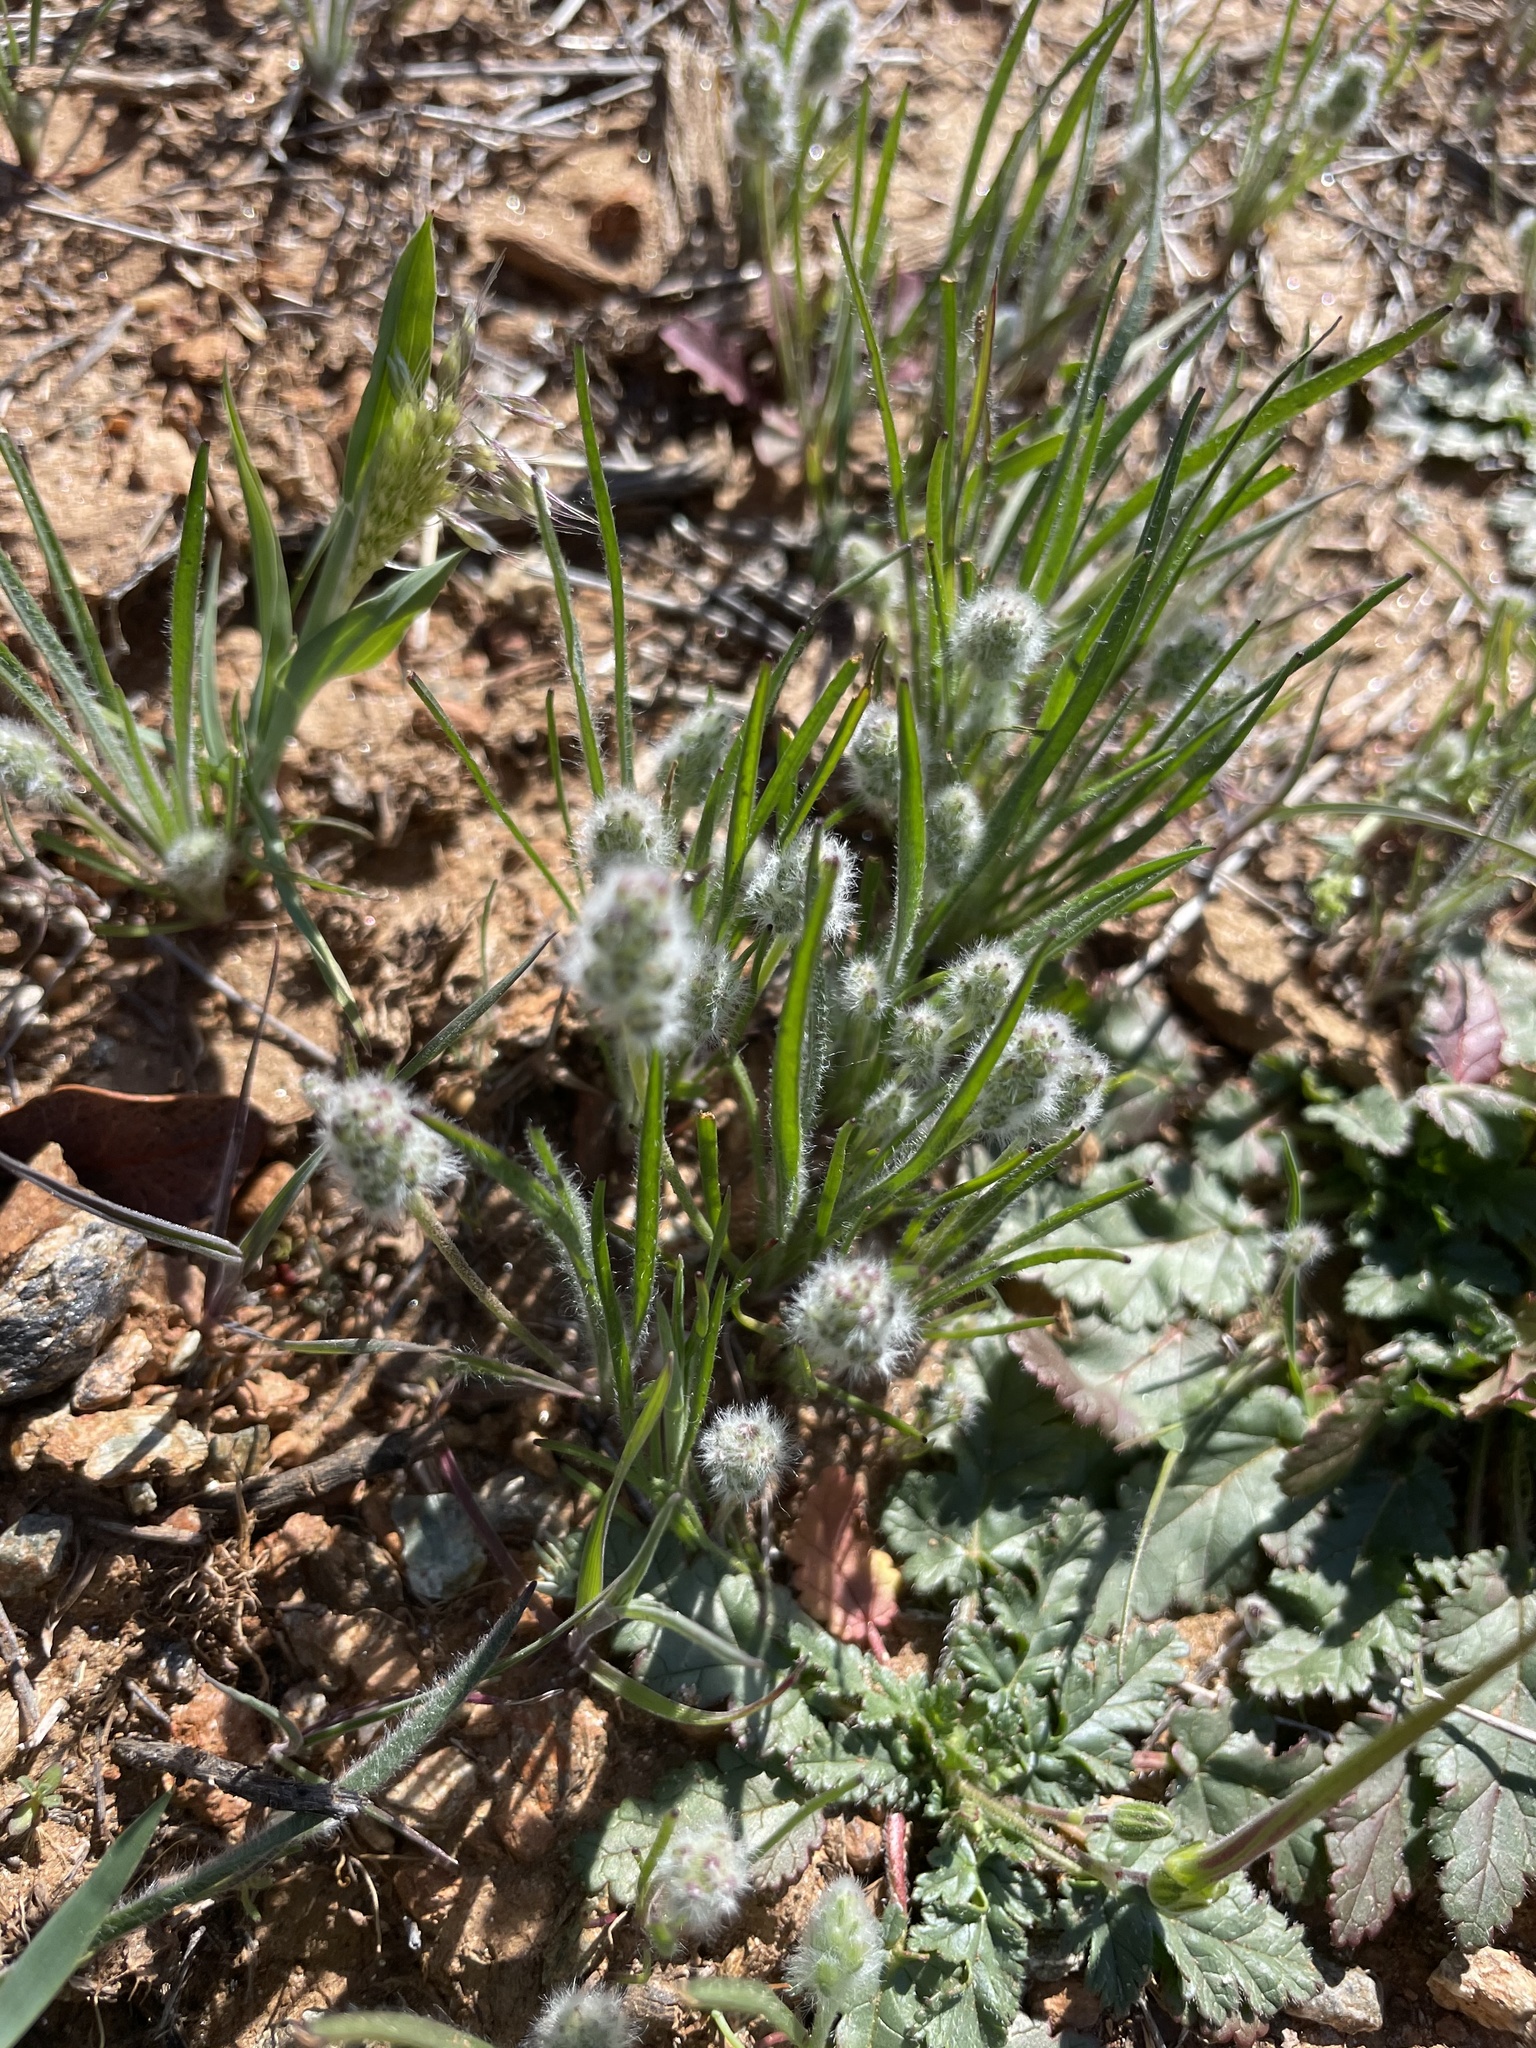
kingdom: Plantae
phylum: Tracheophyta
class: Magnoliopsida
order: Lamiales
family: Plantaginaceae
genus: Plantago
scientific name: Plantago erecta
